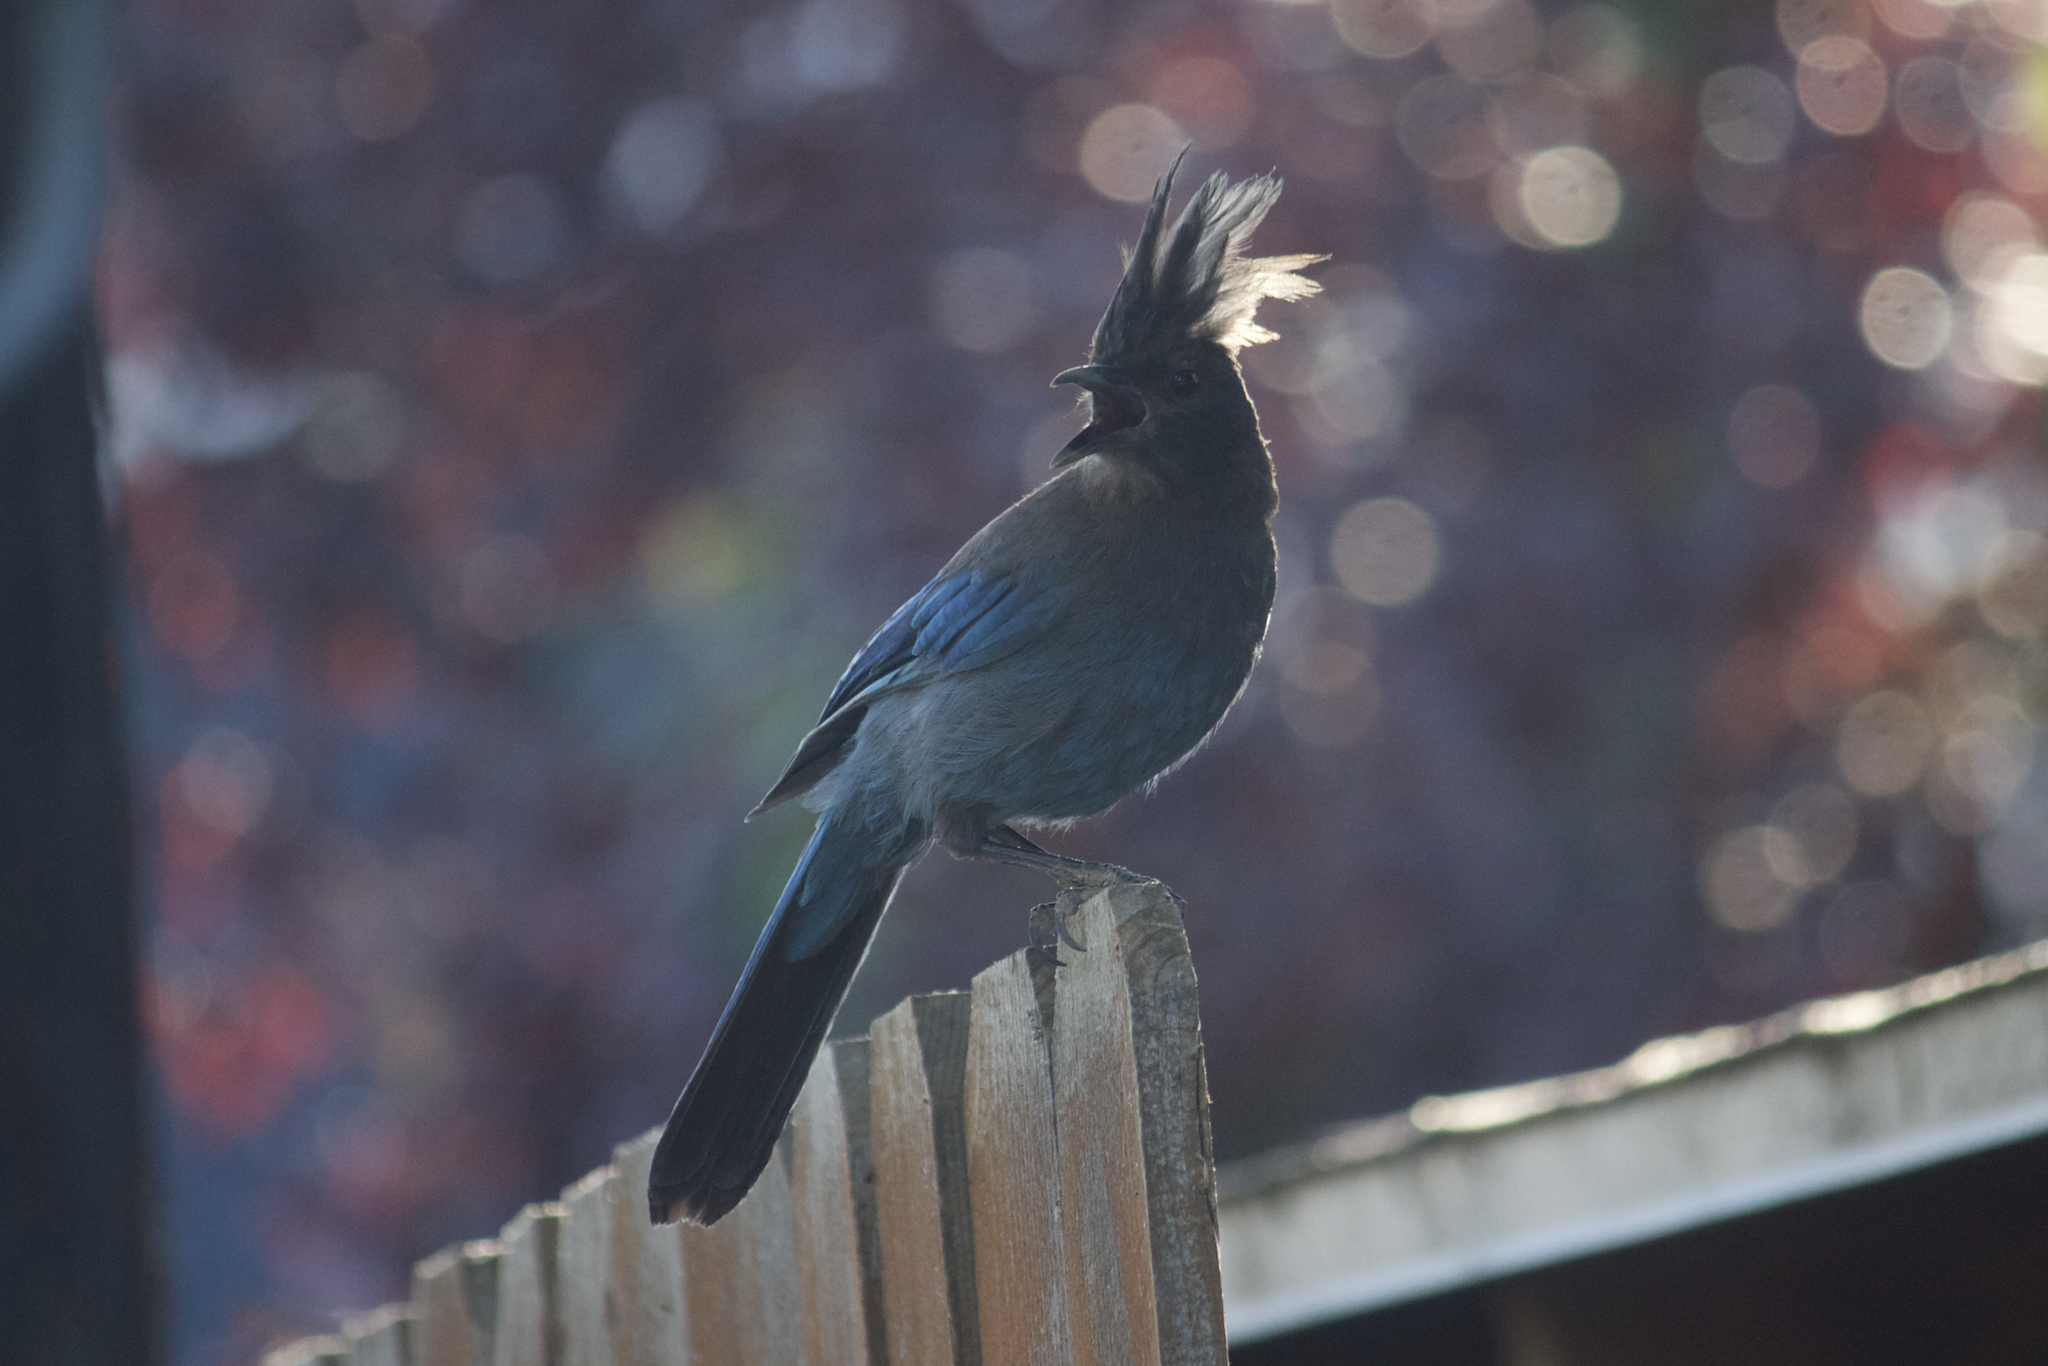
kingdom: Animalia
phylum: Chordata
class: Aves
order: Passeriformes
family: Corvidae
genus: Cyanocitta
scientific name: Cyanocitta stelleri
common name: Steller's jay
